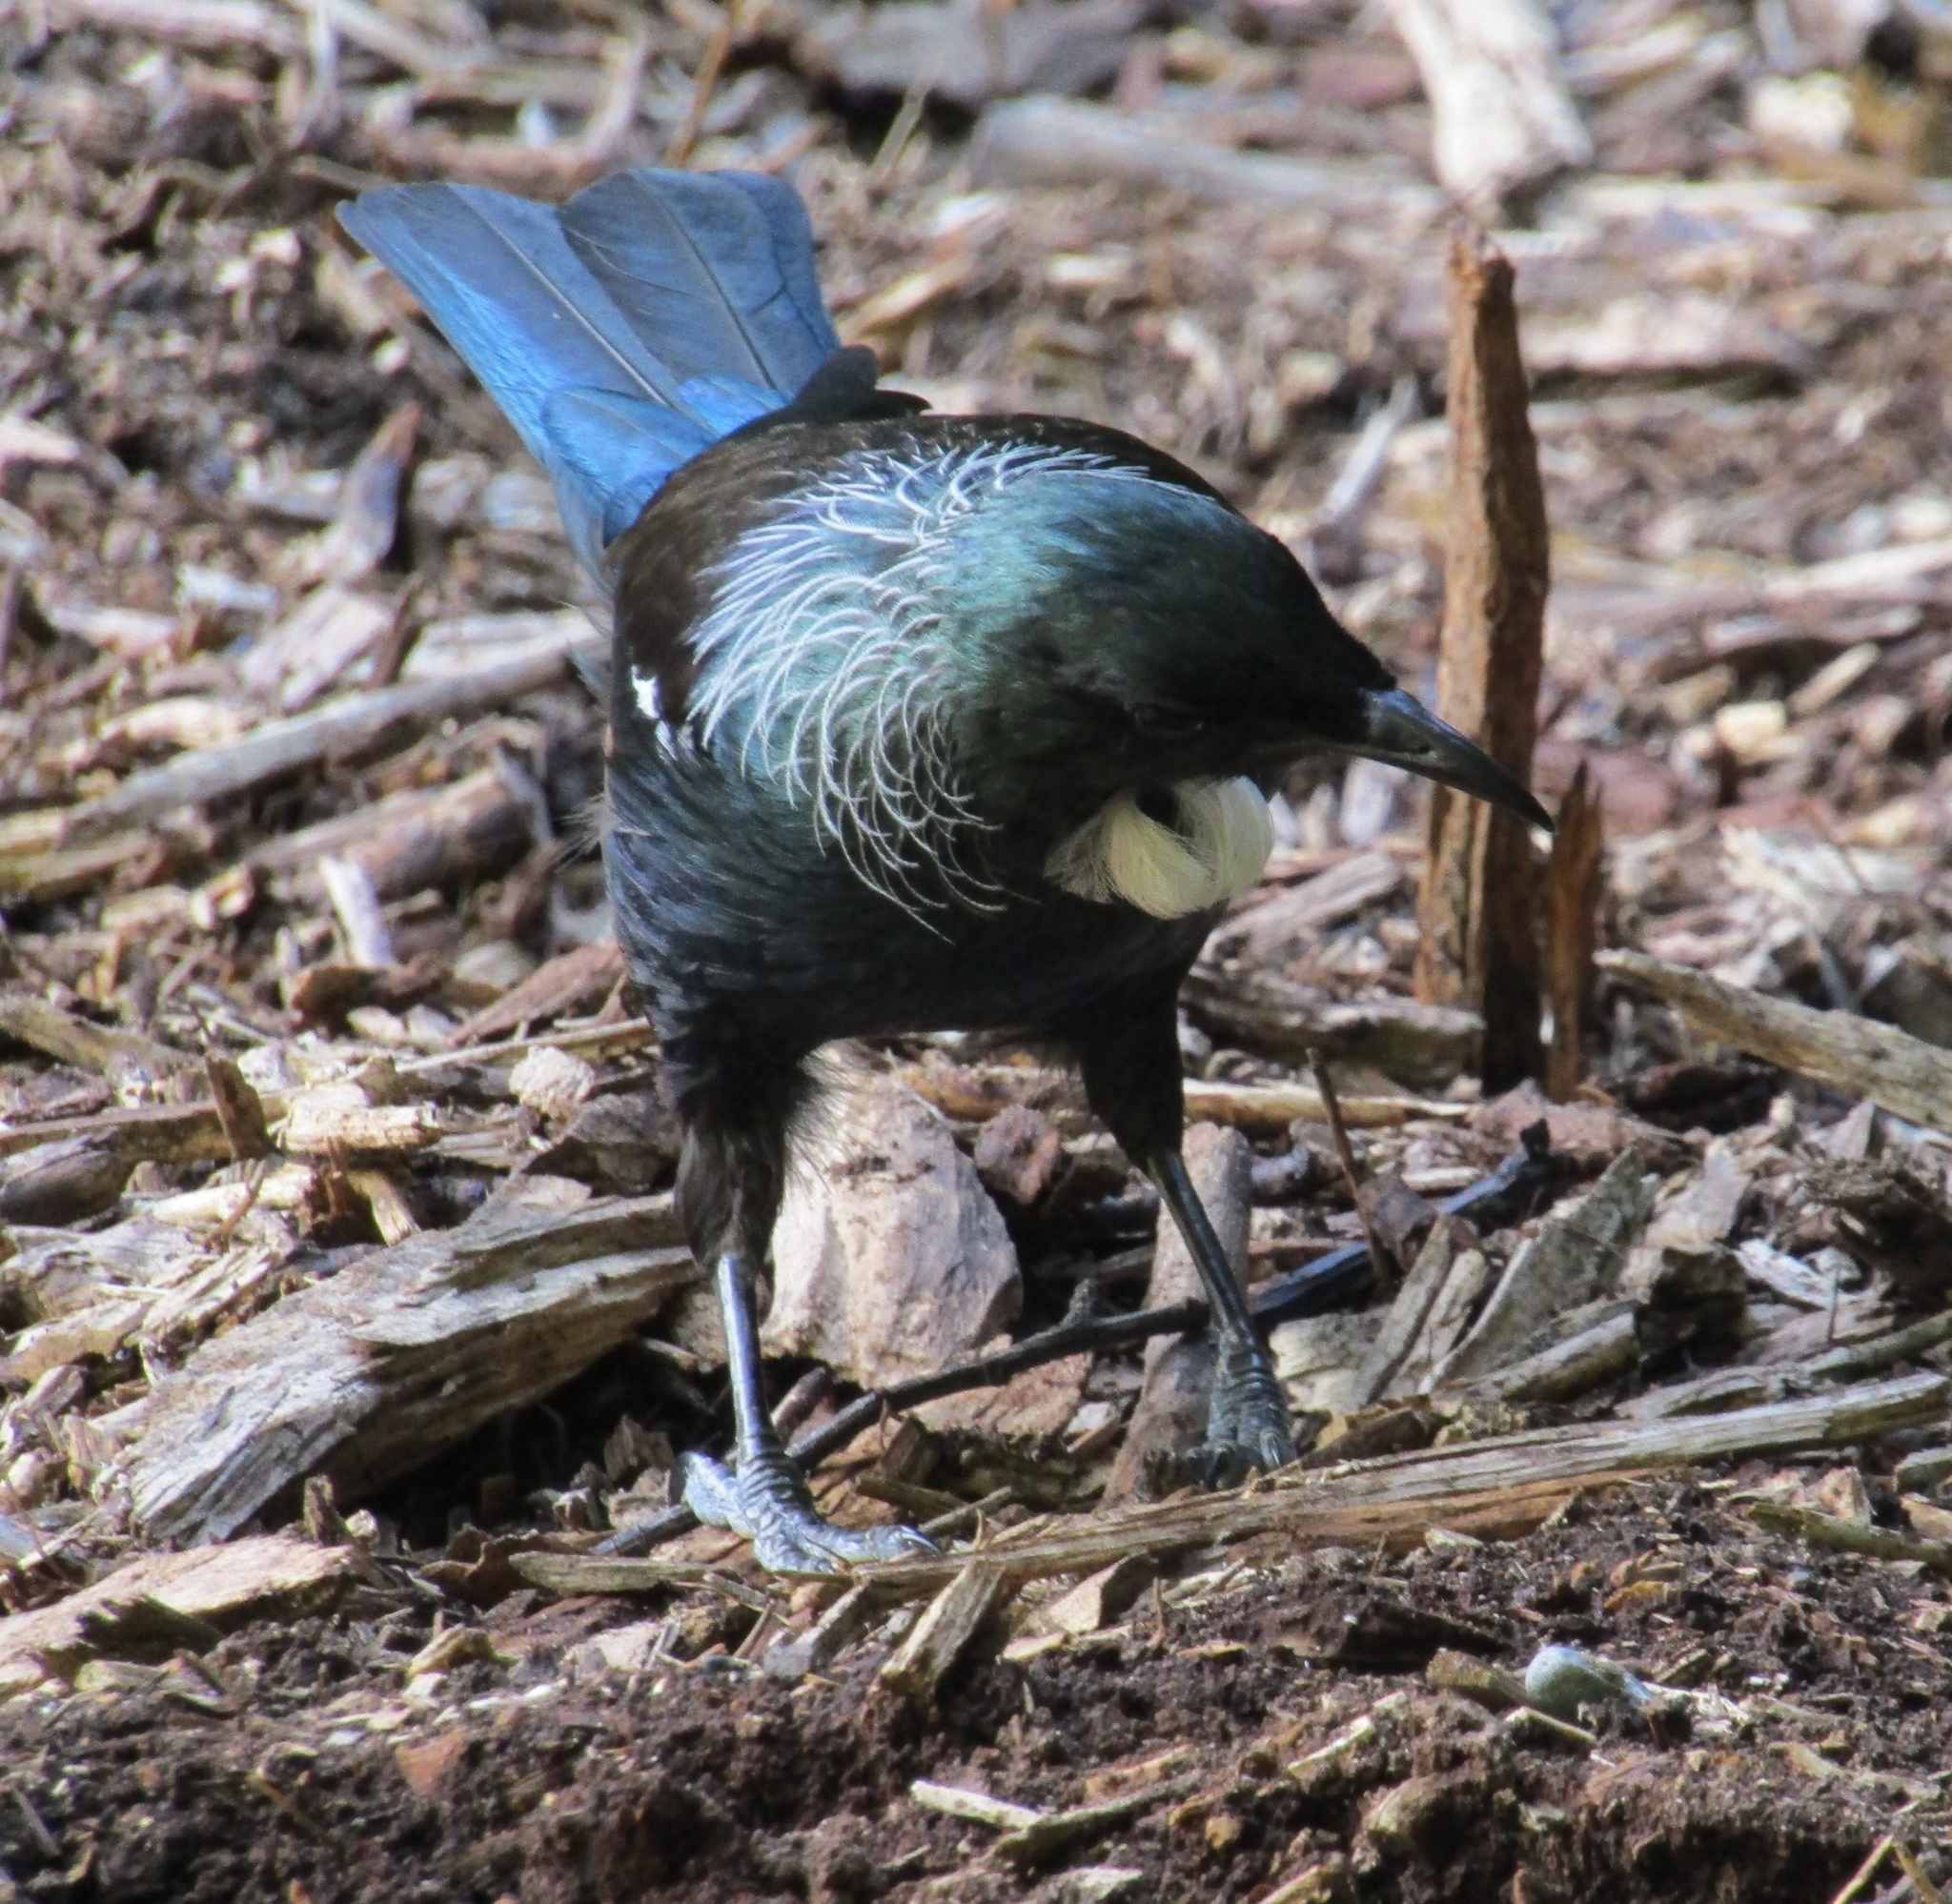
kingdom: Animalia
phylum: Chordata
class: Aves
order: Passeriformes
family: Meliphagidae
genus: Prosthemadera
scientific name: Prosthemadera novaeseelandiae
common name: Tui
